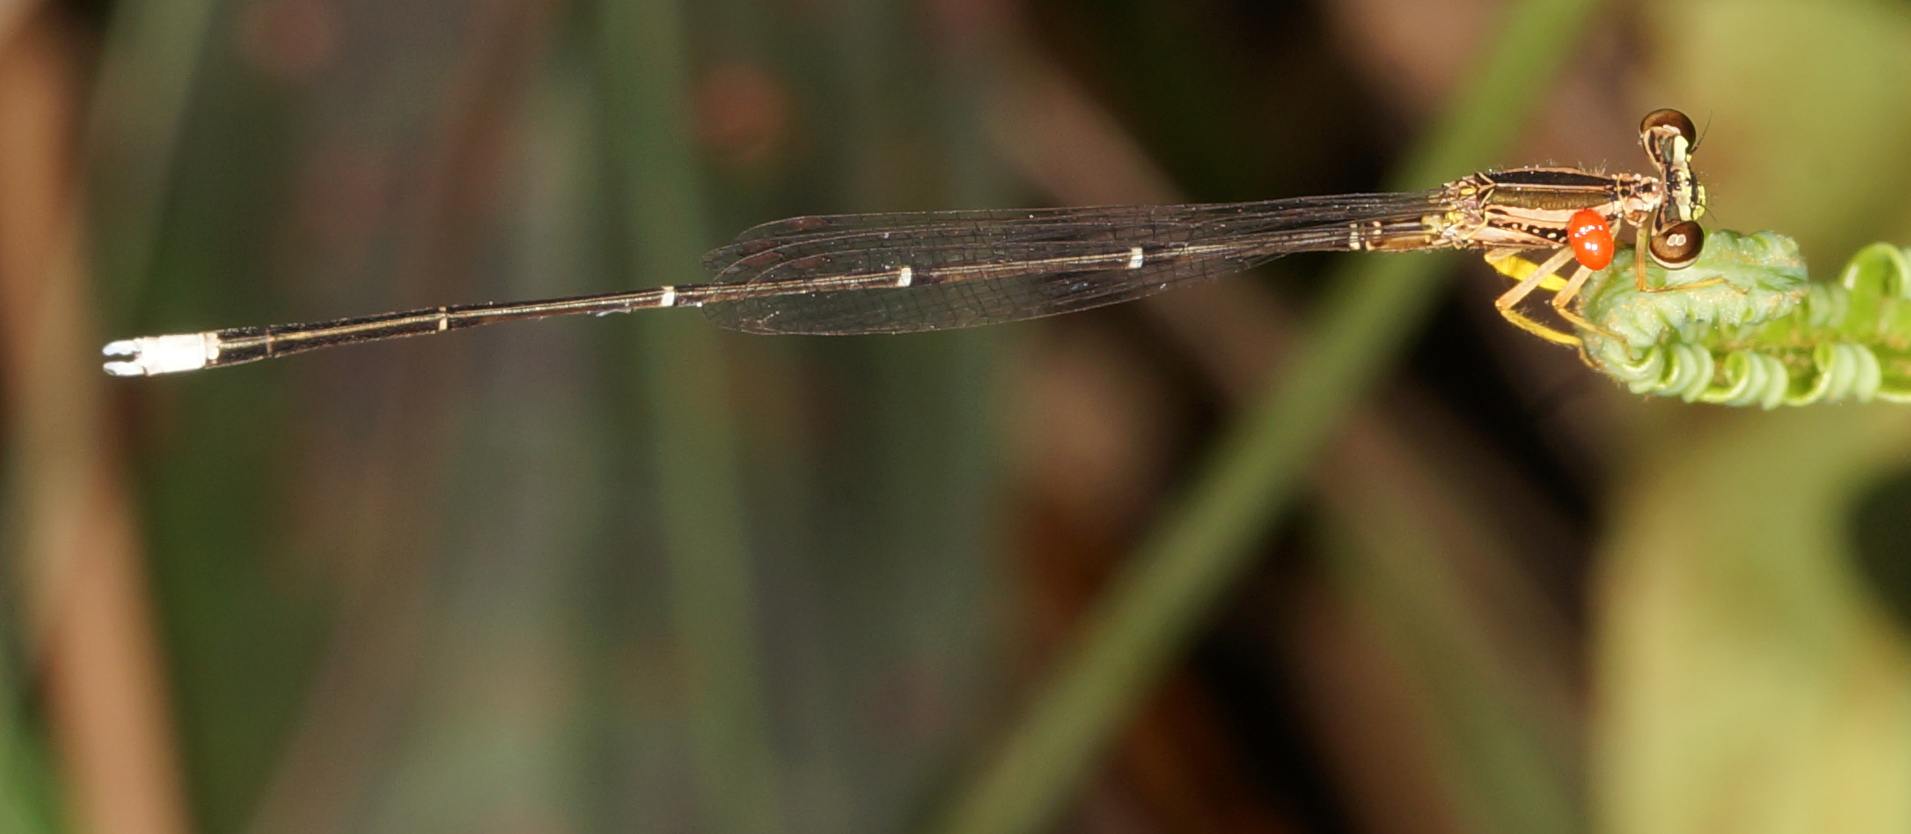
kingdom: Animalia
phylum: Arthropoda
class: Insecta
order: Odonata
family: Platycnemididae
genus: Copera
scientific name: Copera marginipes
